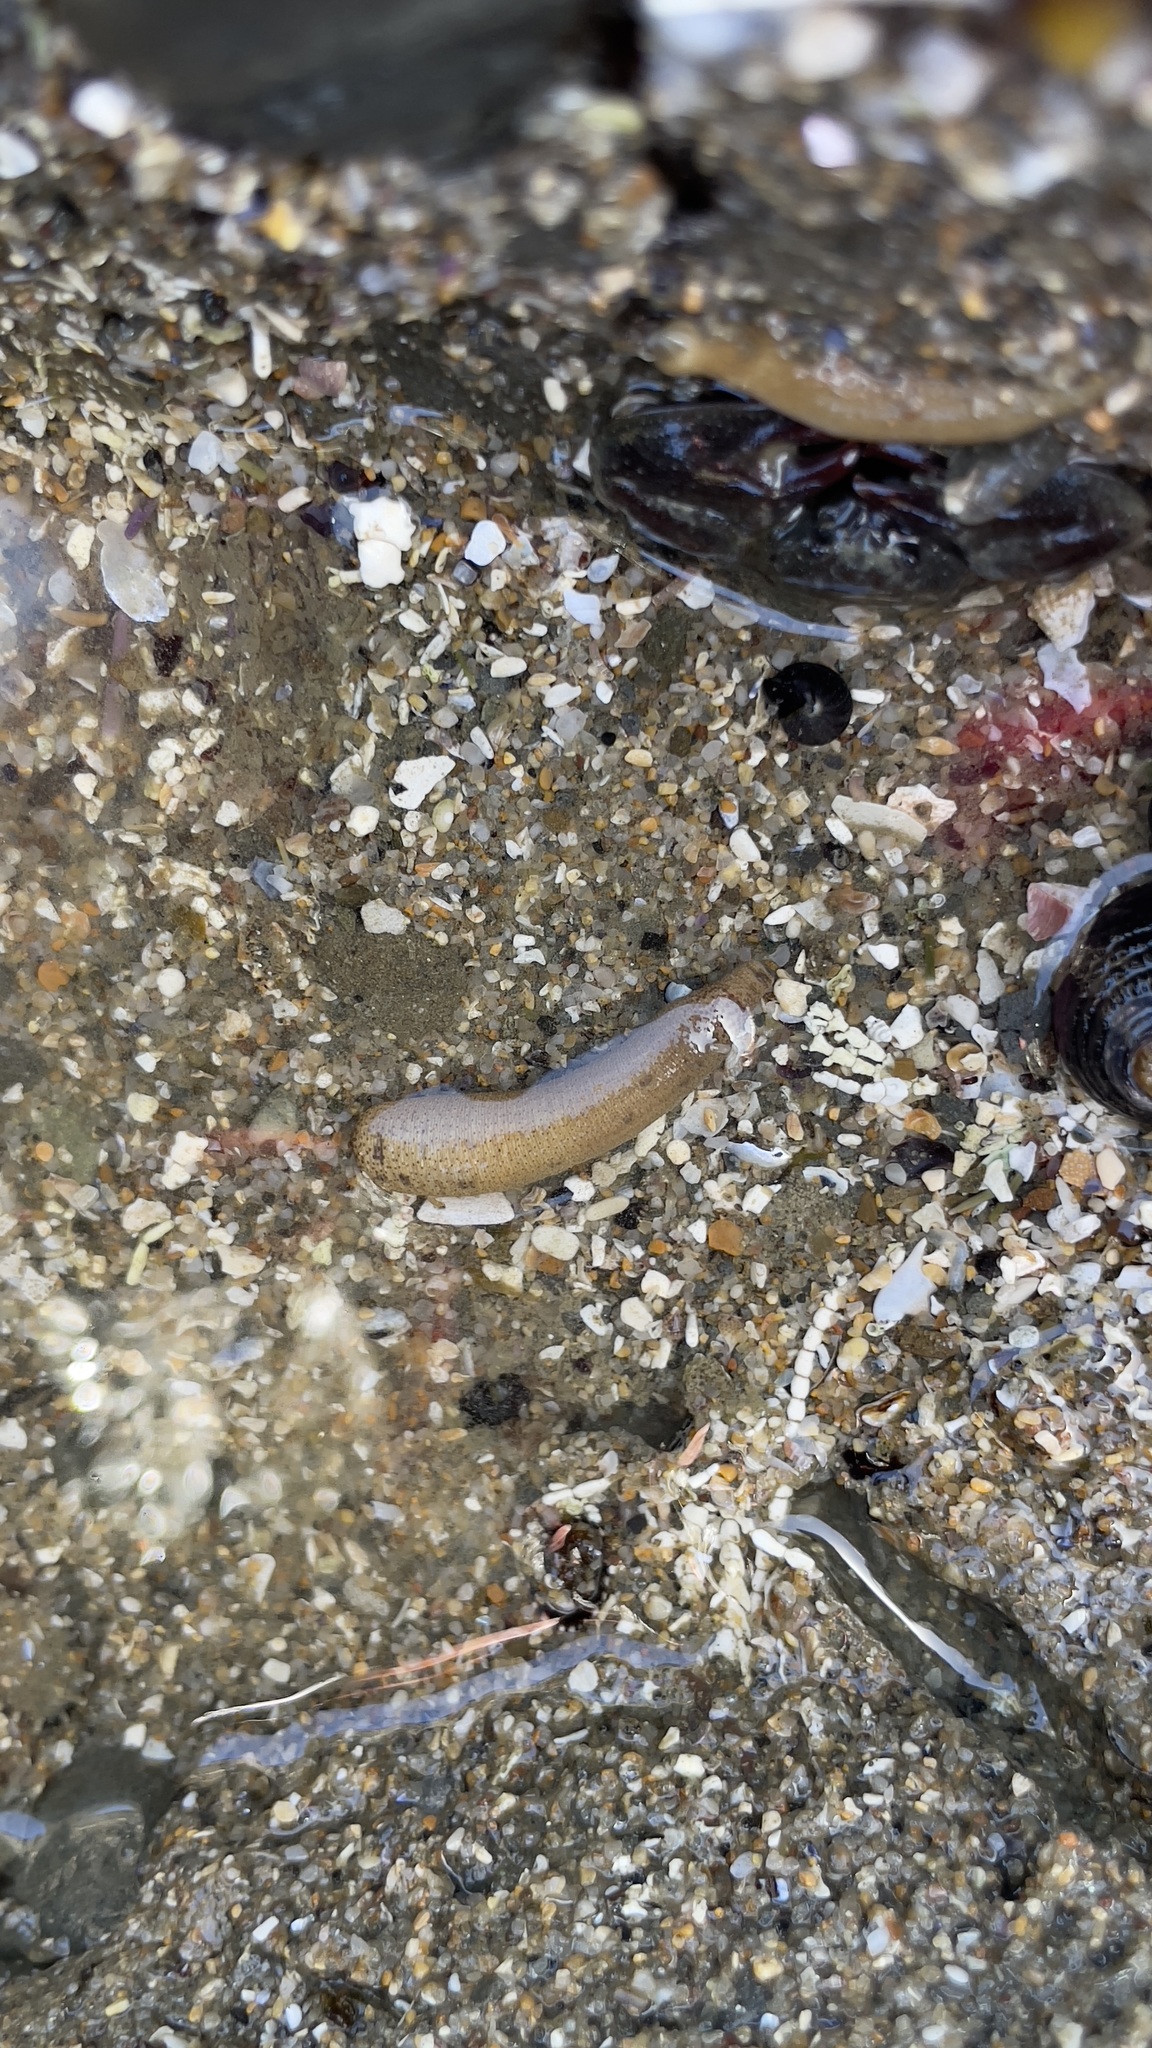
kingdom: Animalia
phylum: Sipuncula
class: Phascolosomatidea
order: Phascolosomatiformes
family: Phascolosomatidae
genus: Phascolosoma
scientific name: Phascolosoma agassizii
